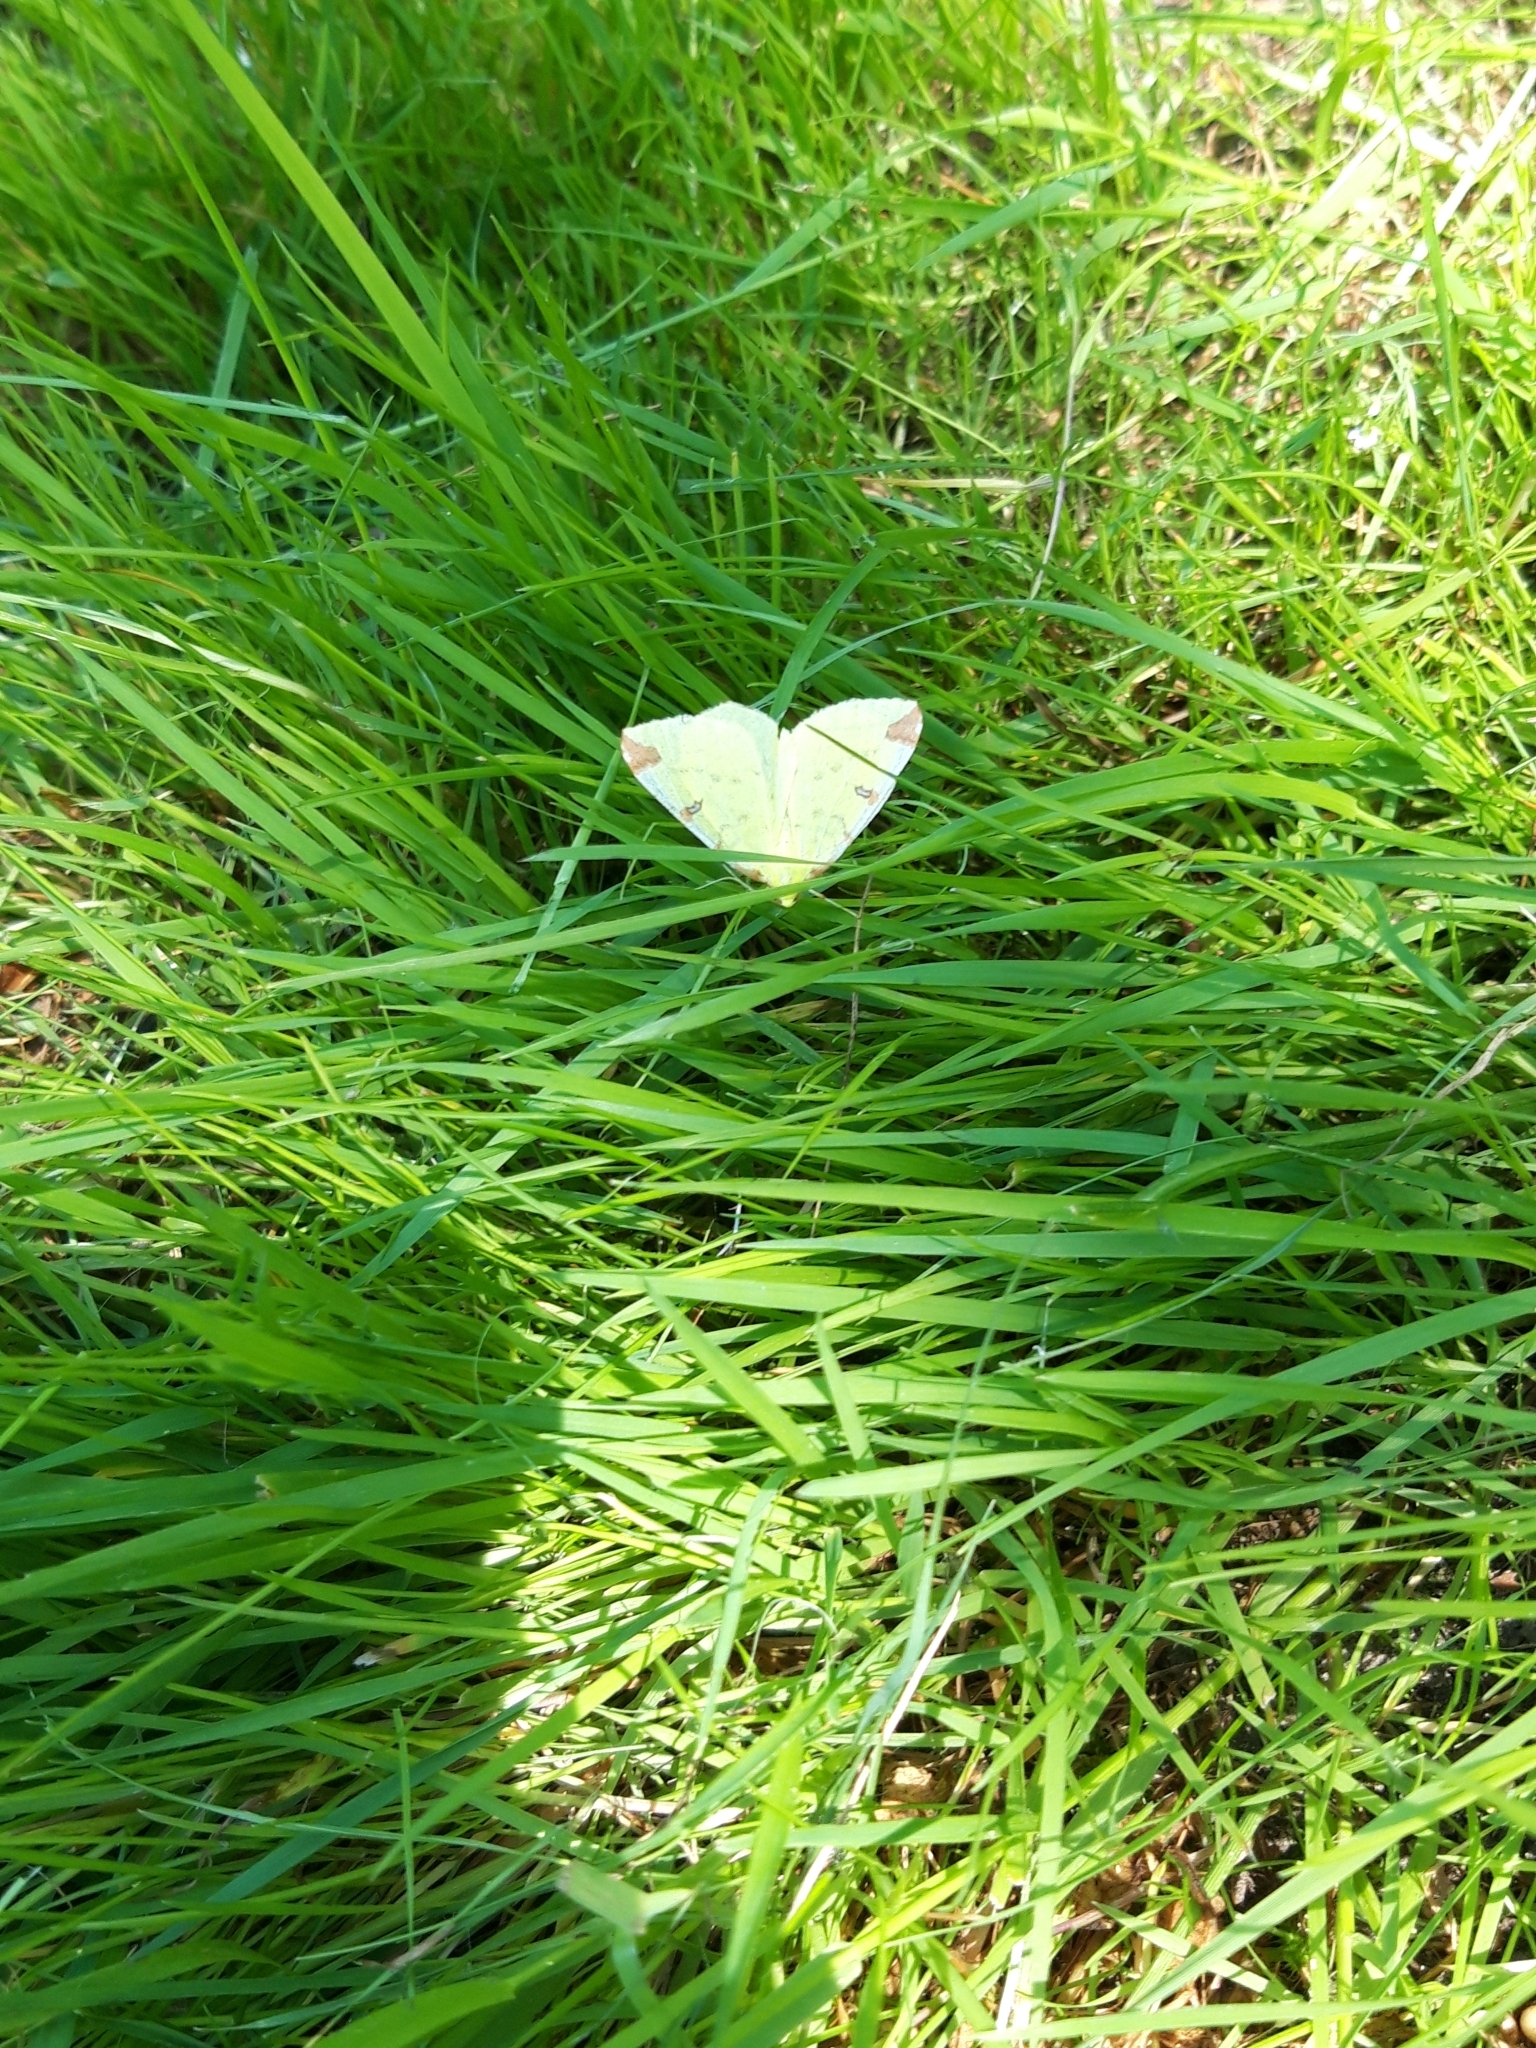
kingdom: Animalia
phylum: Arthropoda
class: Insecta
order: Lepidoptera
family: Geometridae
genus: Opisthograptis
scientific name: Opisthograptis luteolata
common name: Brimstone moth
